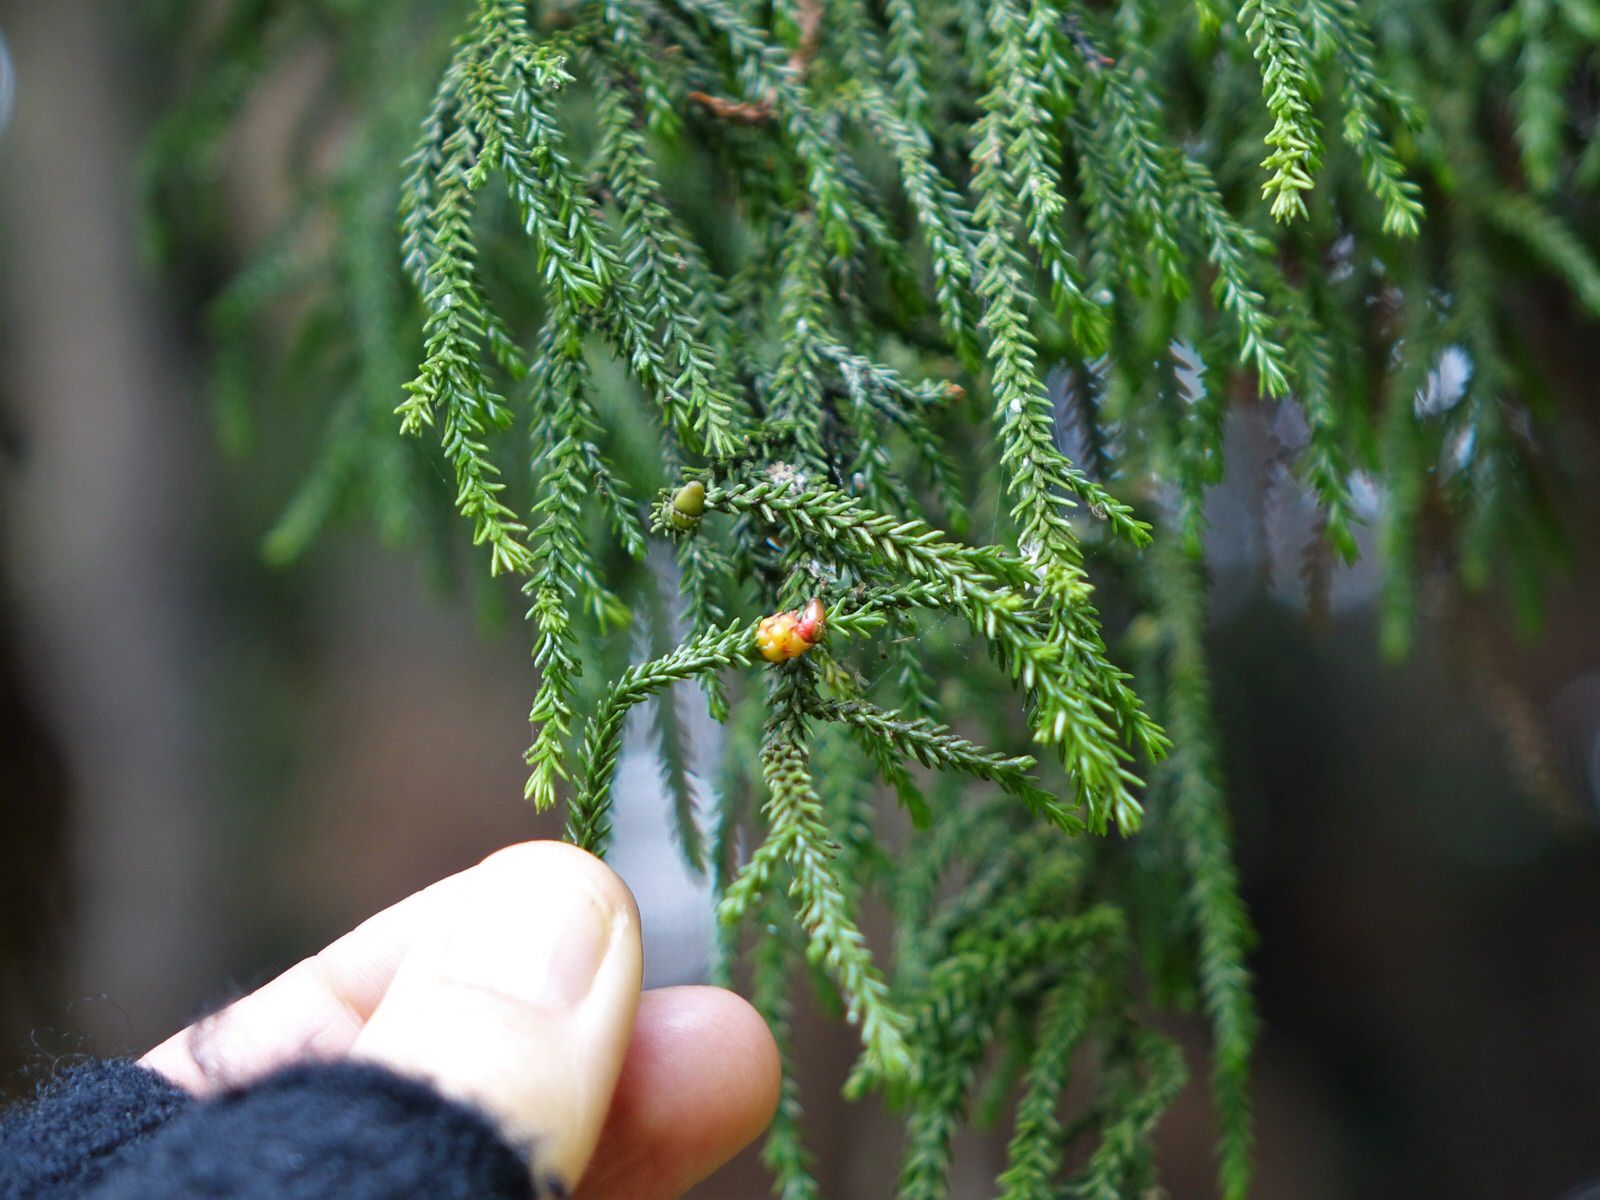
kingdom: Plantae
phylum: Tracheophyta
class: Pinopsida
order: Pinales
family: Podocarpaceae
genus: Dacrydium
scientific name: Dacrydium cupressinum
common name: Red pine
